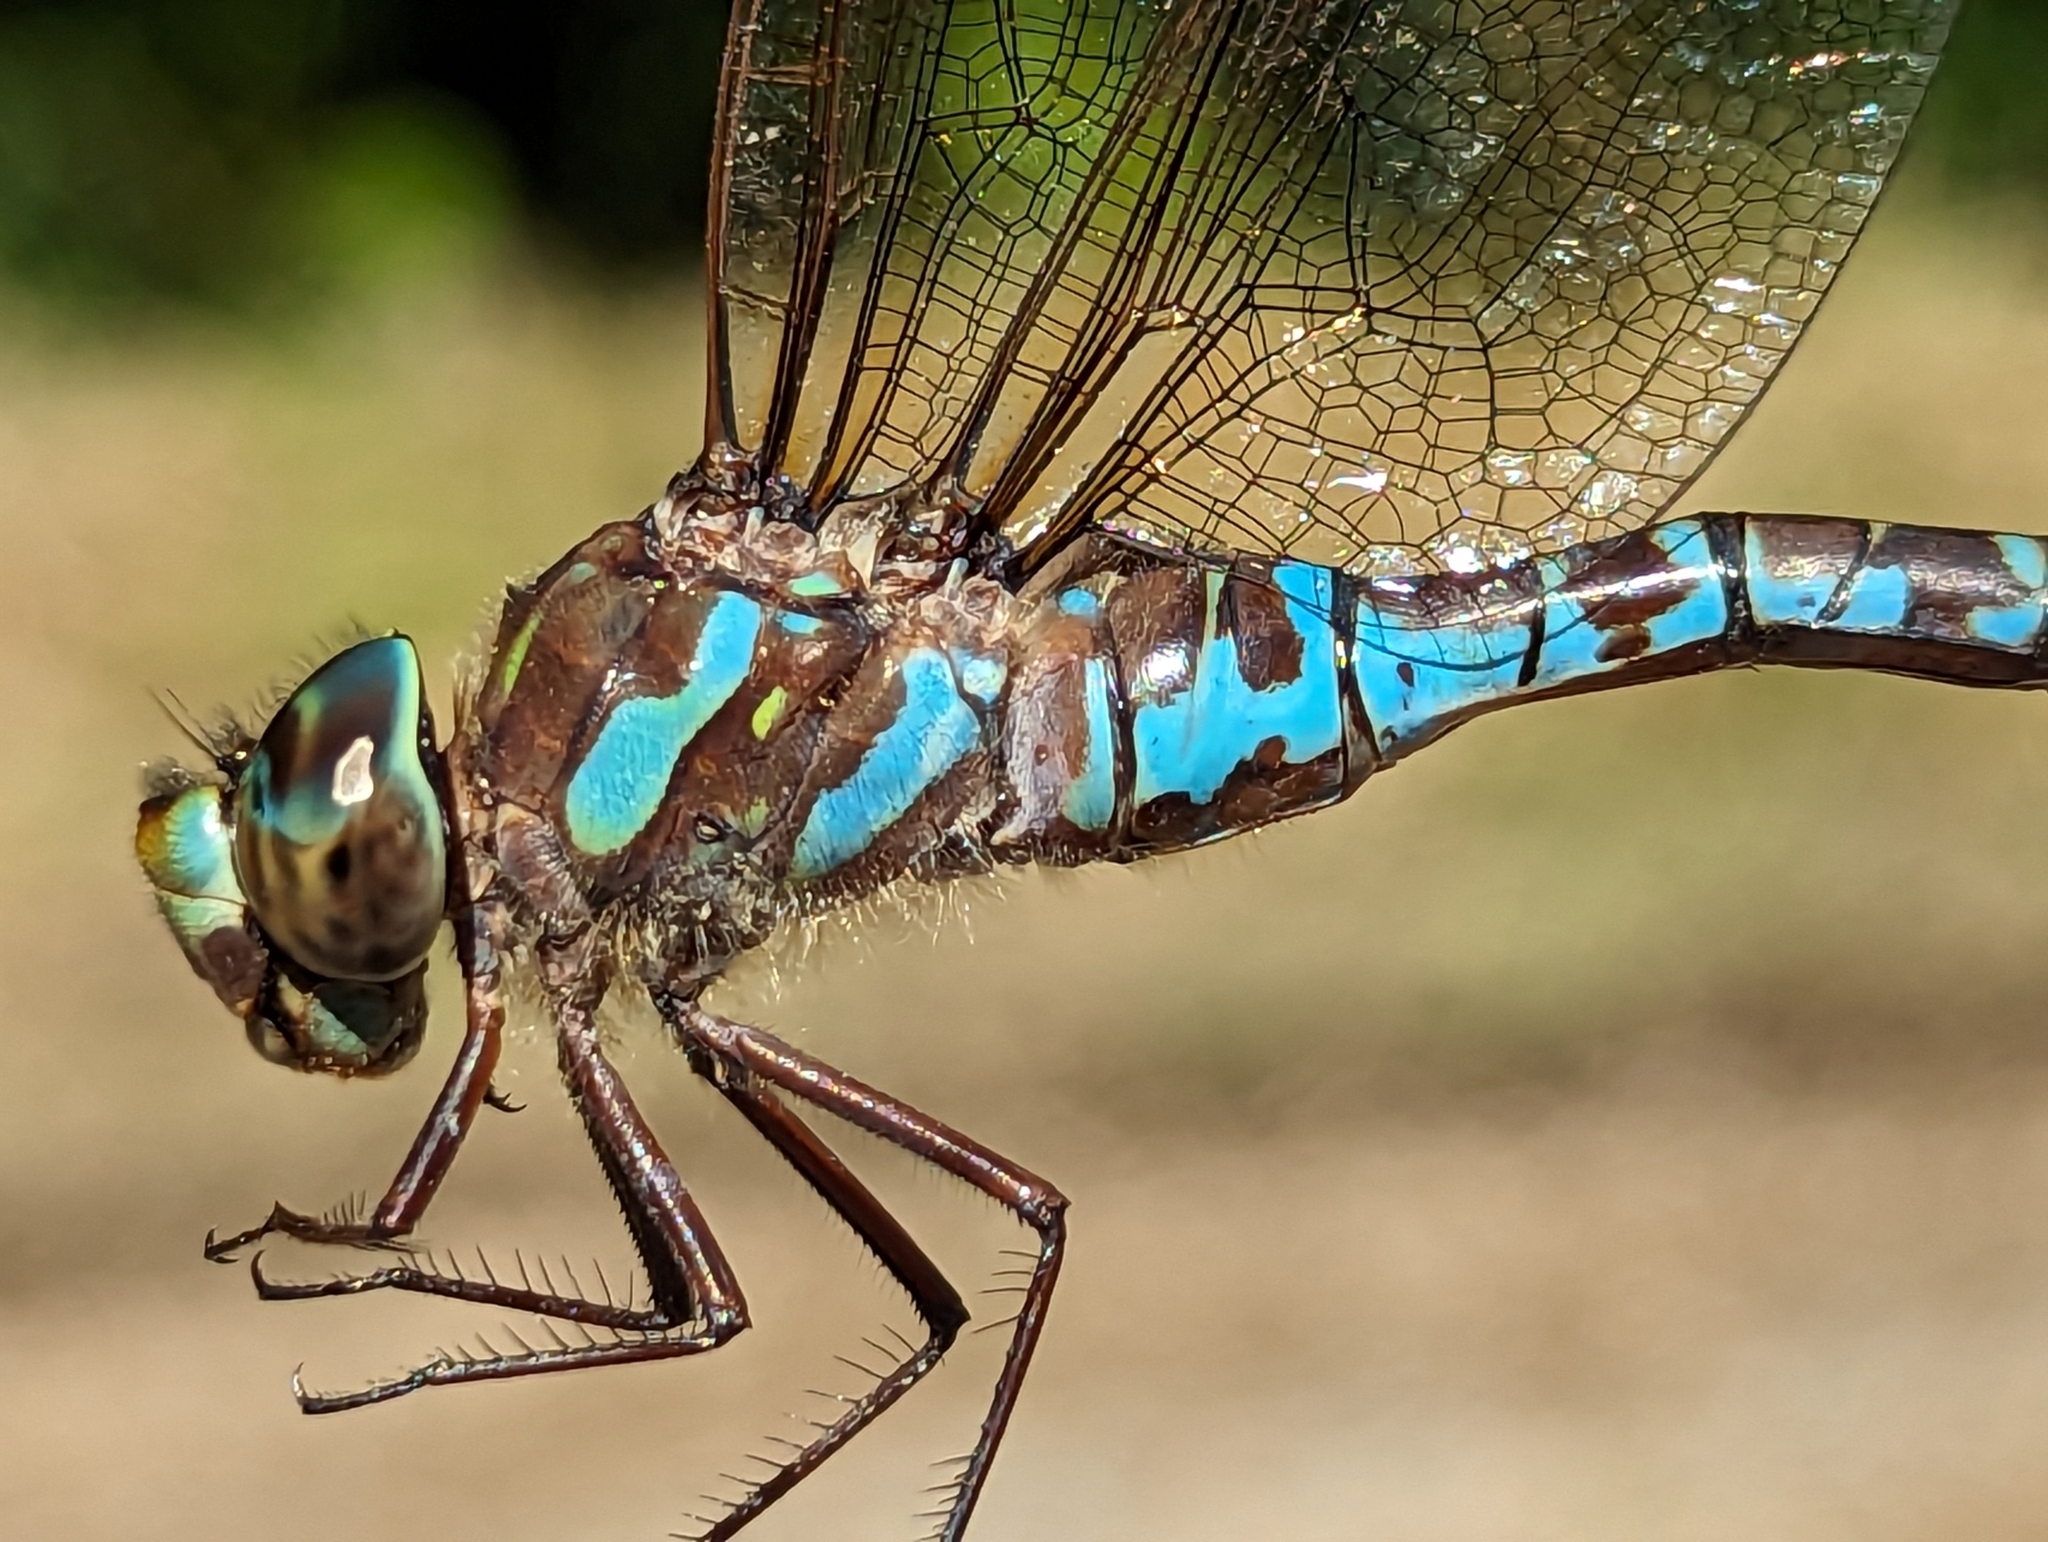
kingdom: Animalia
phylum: Arthropoda
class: Insecta
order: Odonata
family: Aeshnidae
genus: Aeshna
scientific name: Aeshna canadensis
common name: Canada darner
